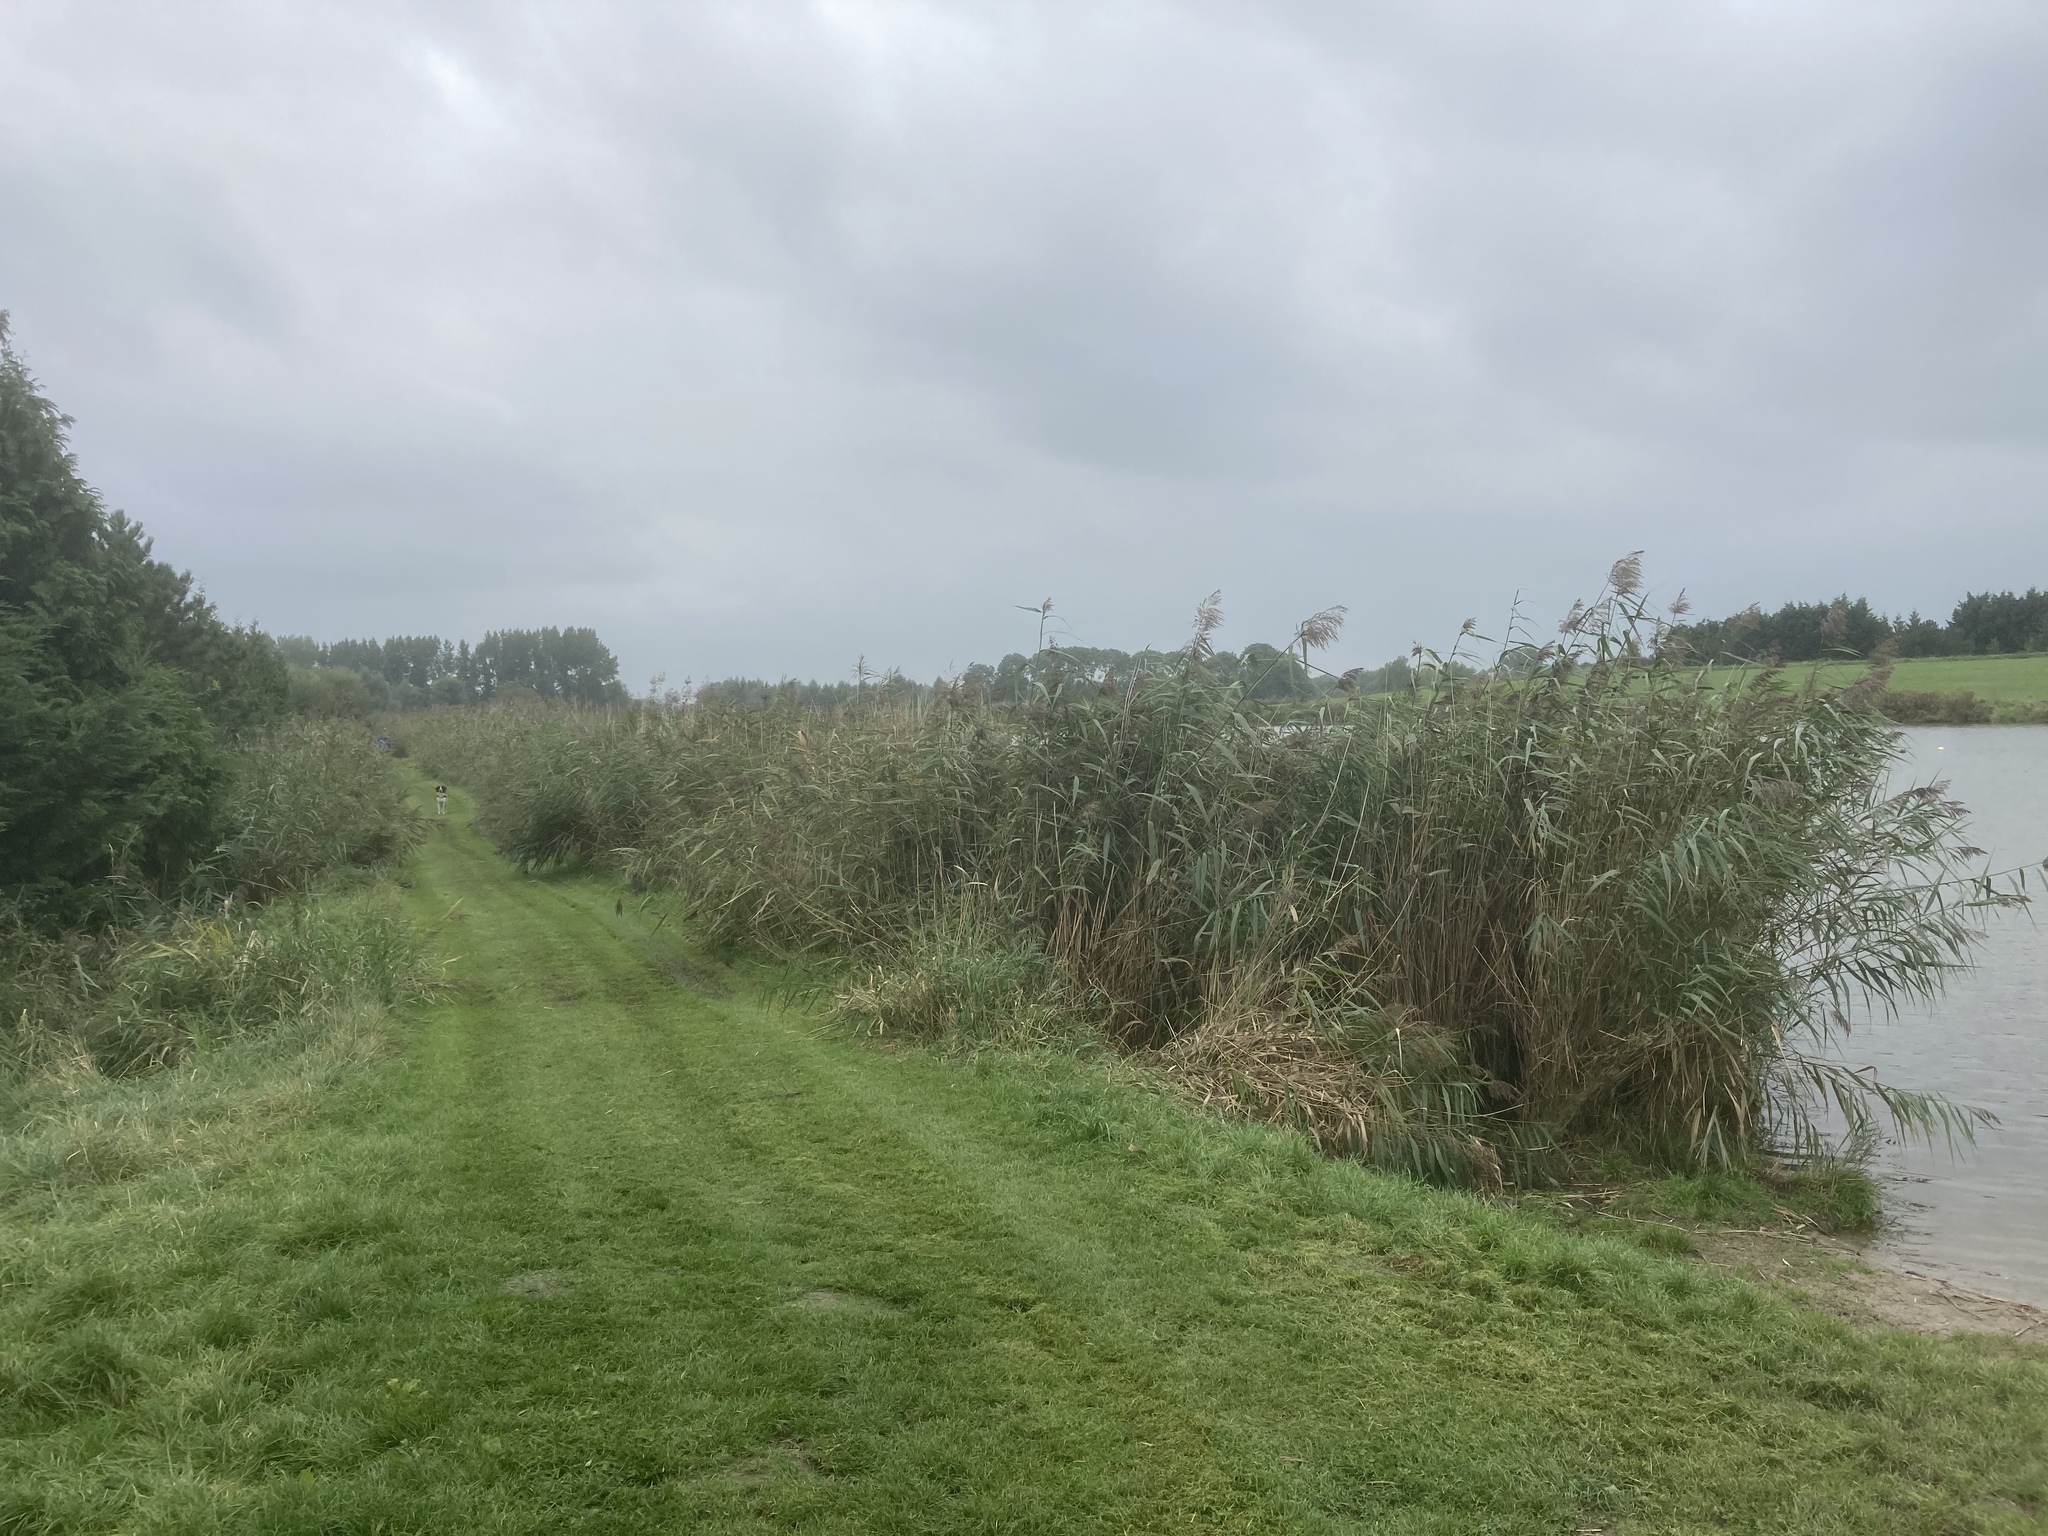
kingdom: Plantae
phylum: Tracheophyta
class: Liliopsida
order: Poales
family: Poaceae
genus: Phragmites
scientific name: Phragmites australis
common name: Common reed
